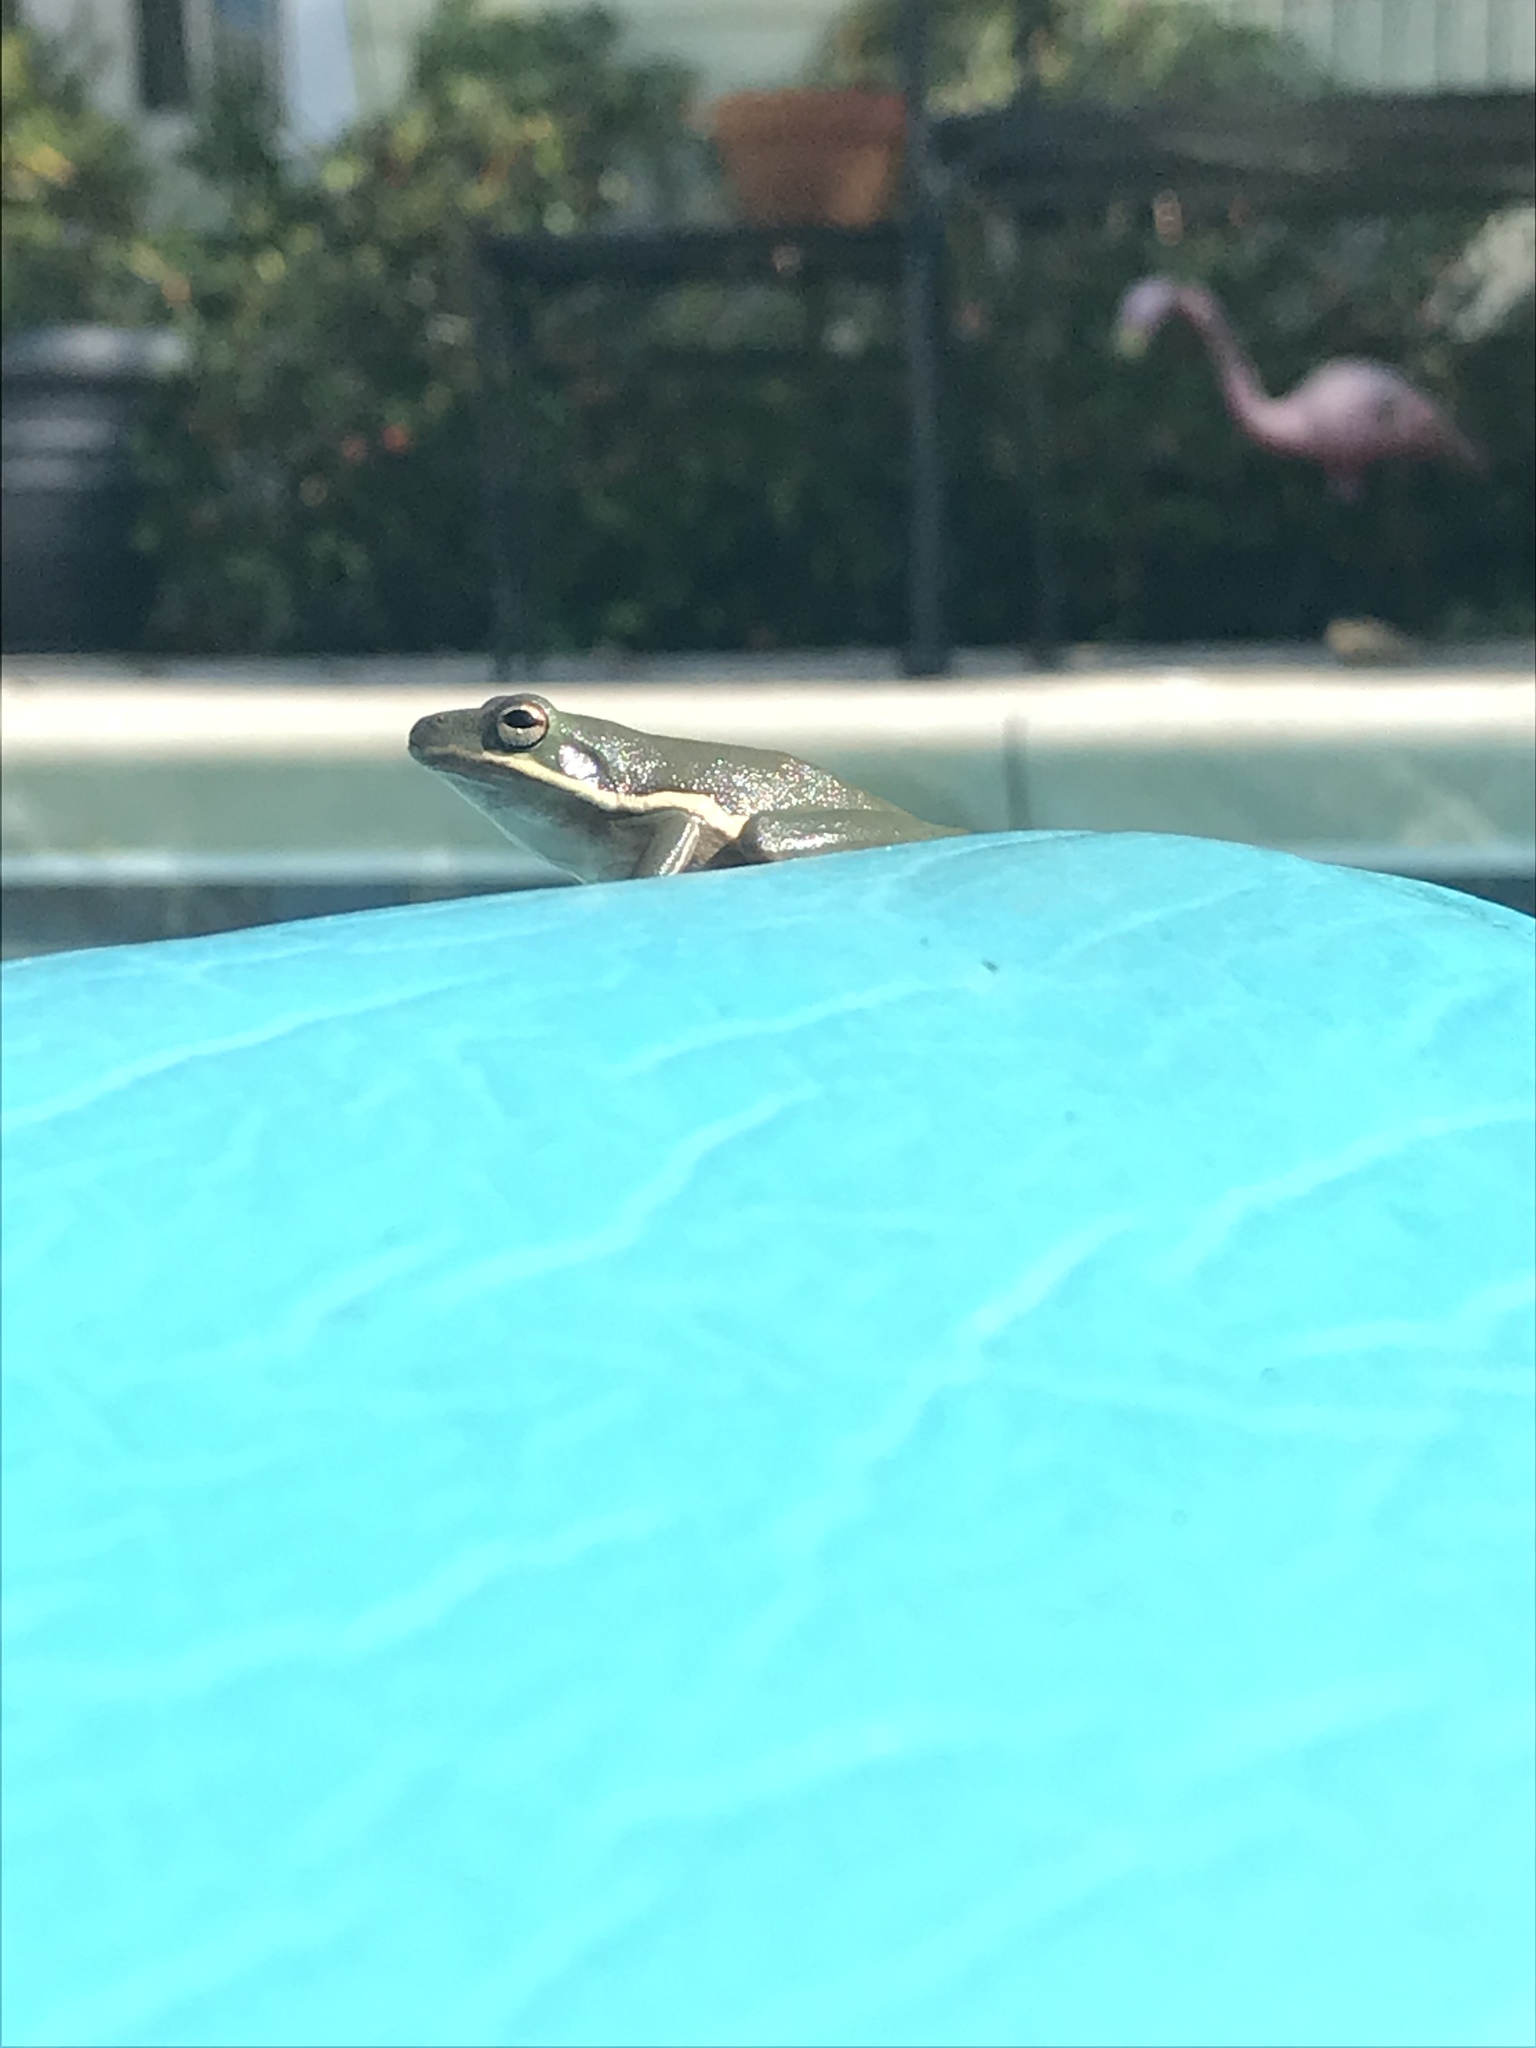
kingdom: Animalia
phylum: Chordata
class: Amphibia
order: Anura
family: Hylidae
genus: Dryophytes
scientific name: Dryophytes cinereus
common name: Green treefrog
